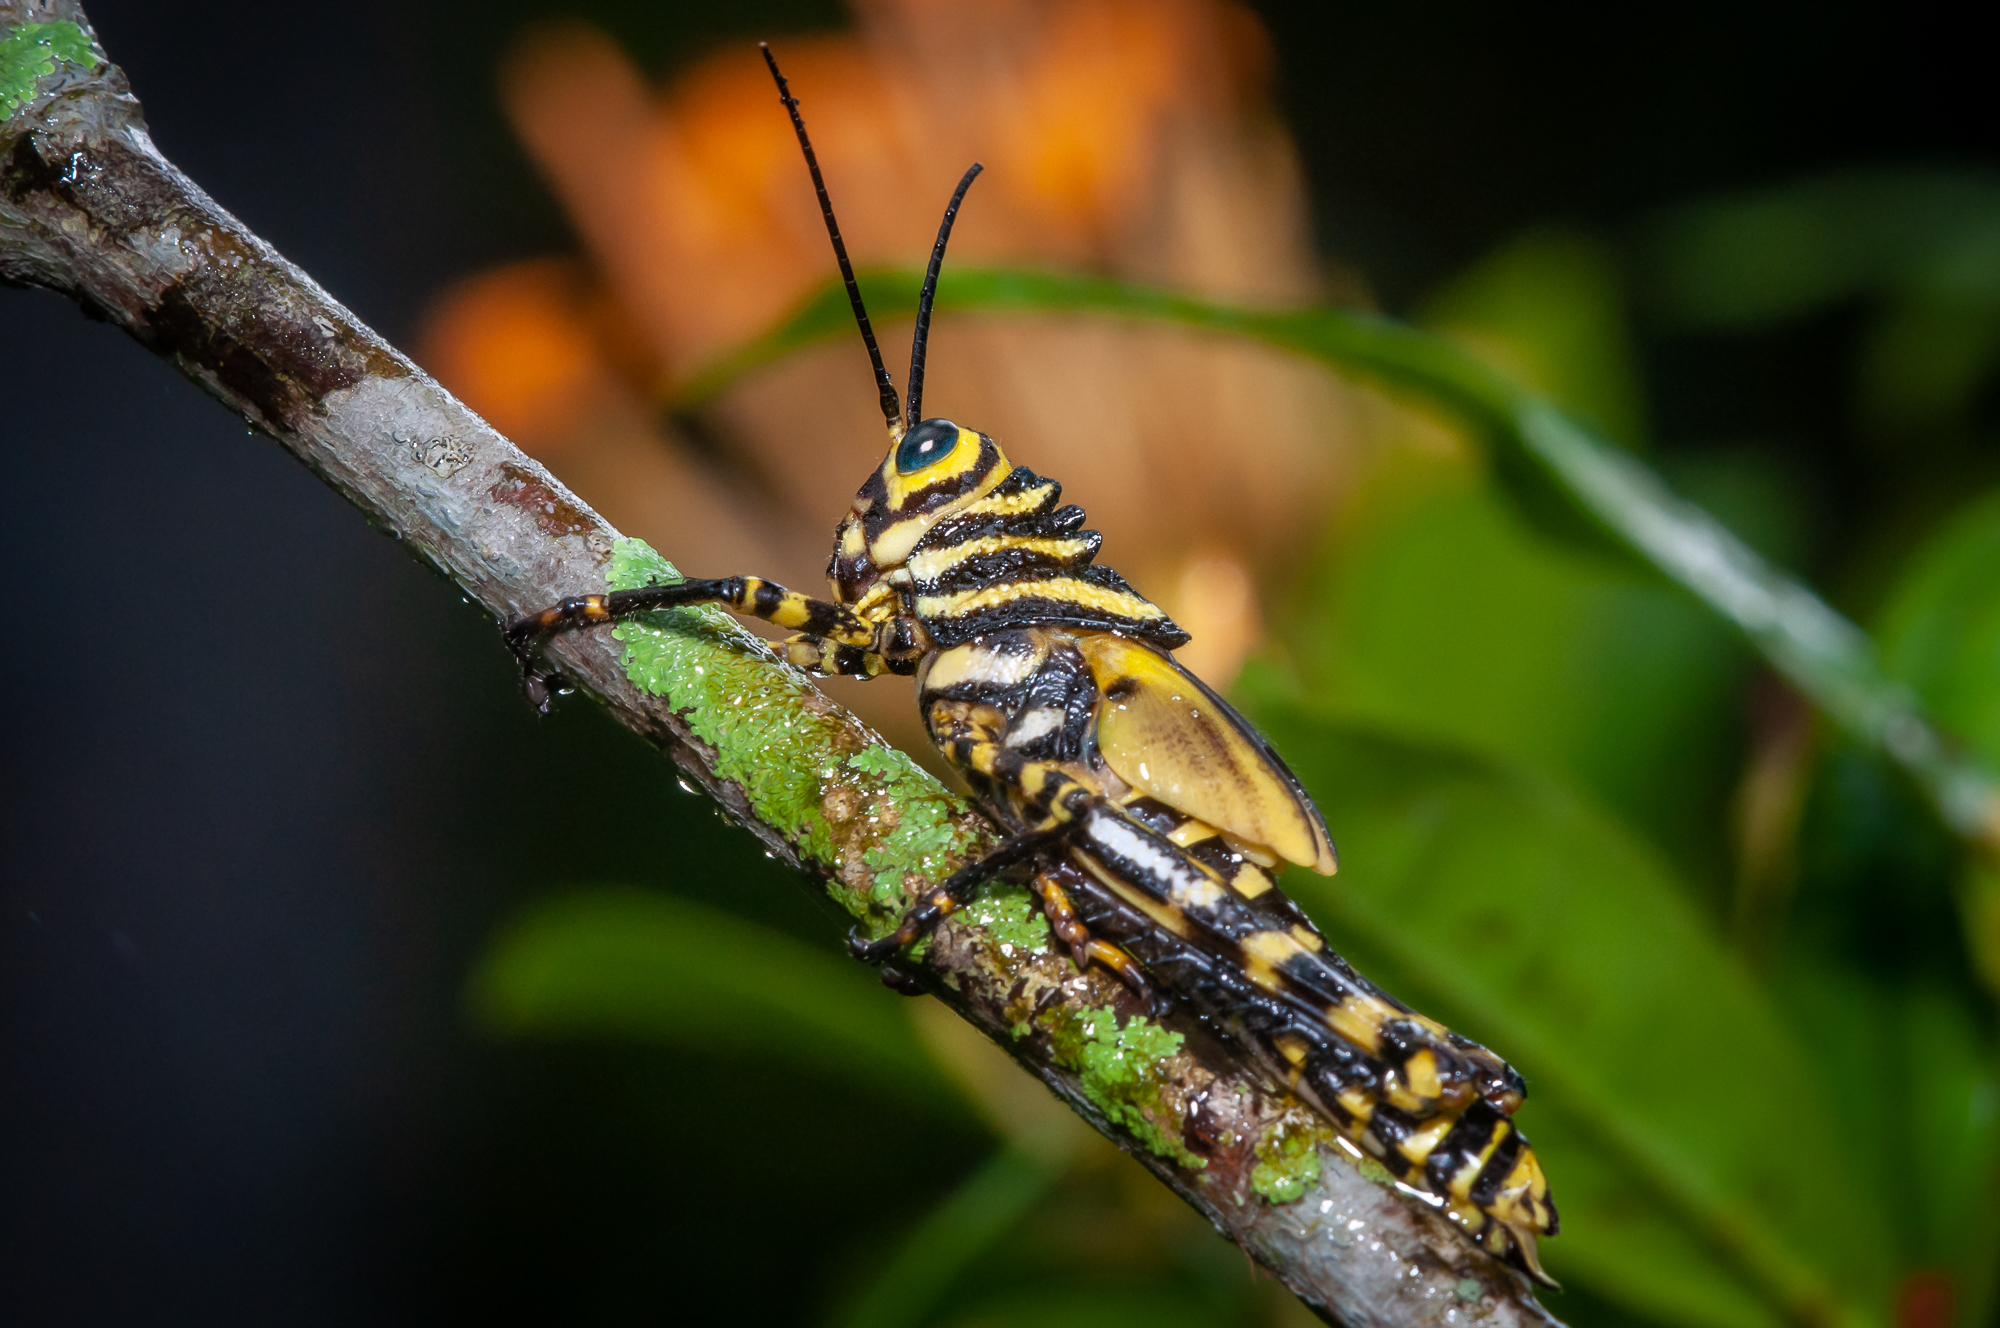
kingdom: Animalia
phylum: Arthropoda
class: Insecta
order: Orthoptera
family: Romaleidae
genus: Tropidacris
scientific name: Tropidacris cristata
